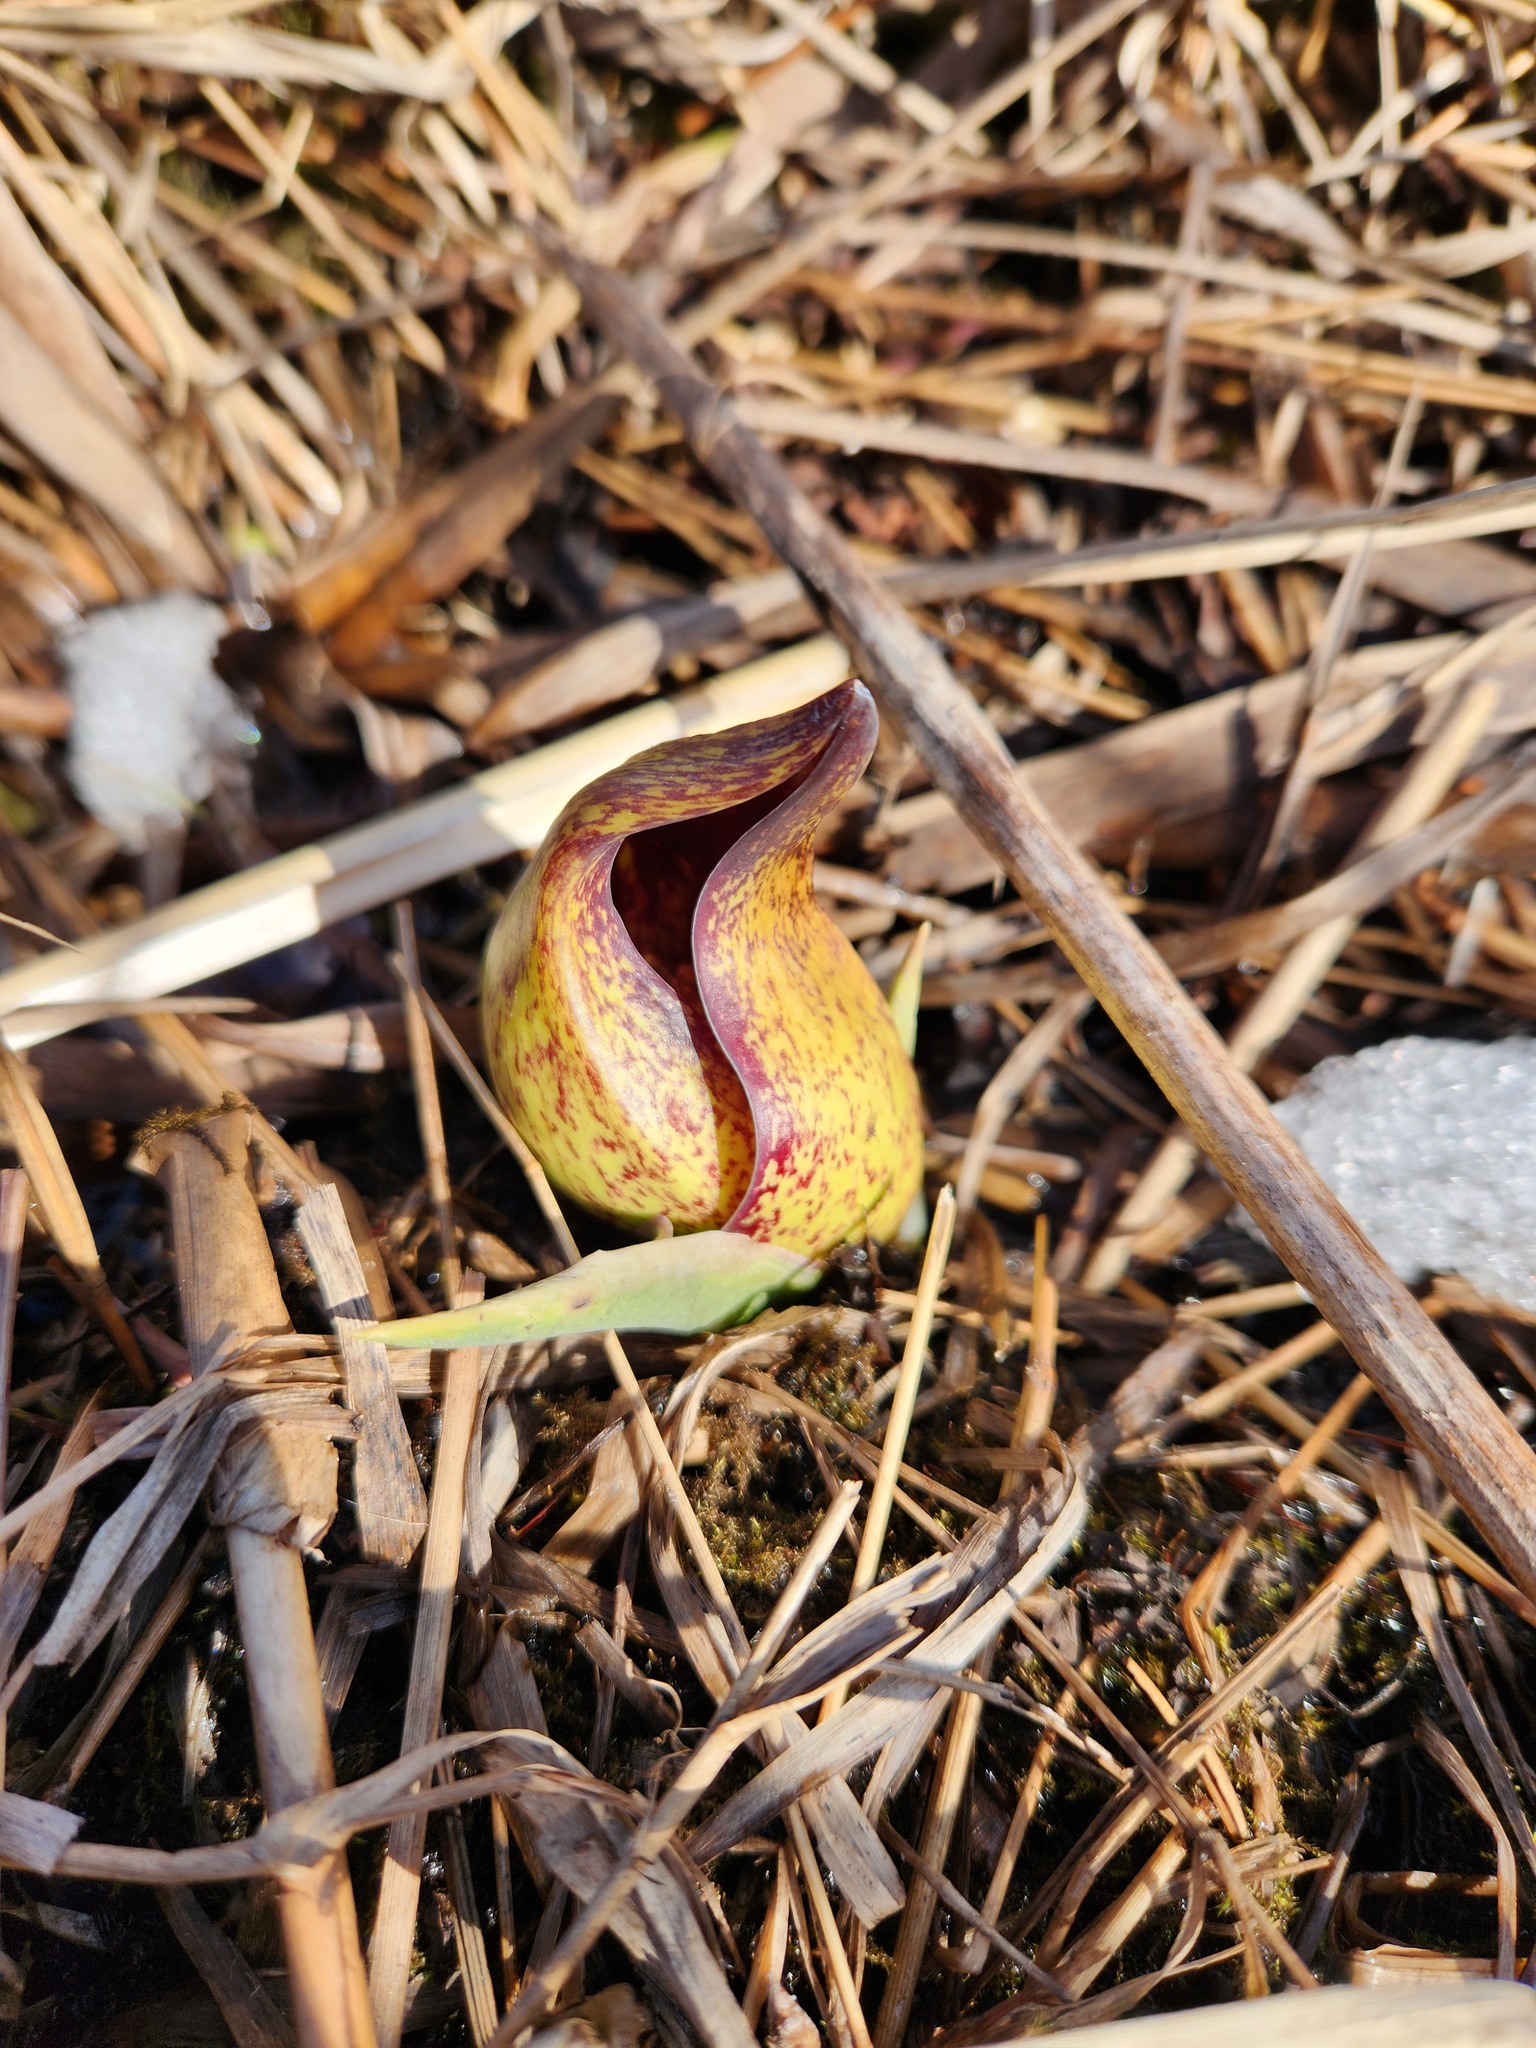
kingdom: Plantae
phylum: Tracheophyta
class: Liliopsida
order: Alismatales
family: Araceae
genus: Symplocarpus
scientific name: Symplocarpus foetidus
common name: Eastern skunk cabbage
